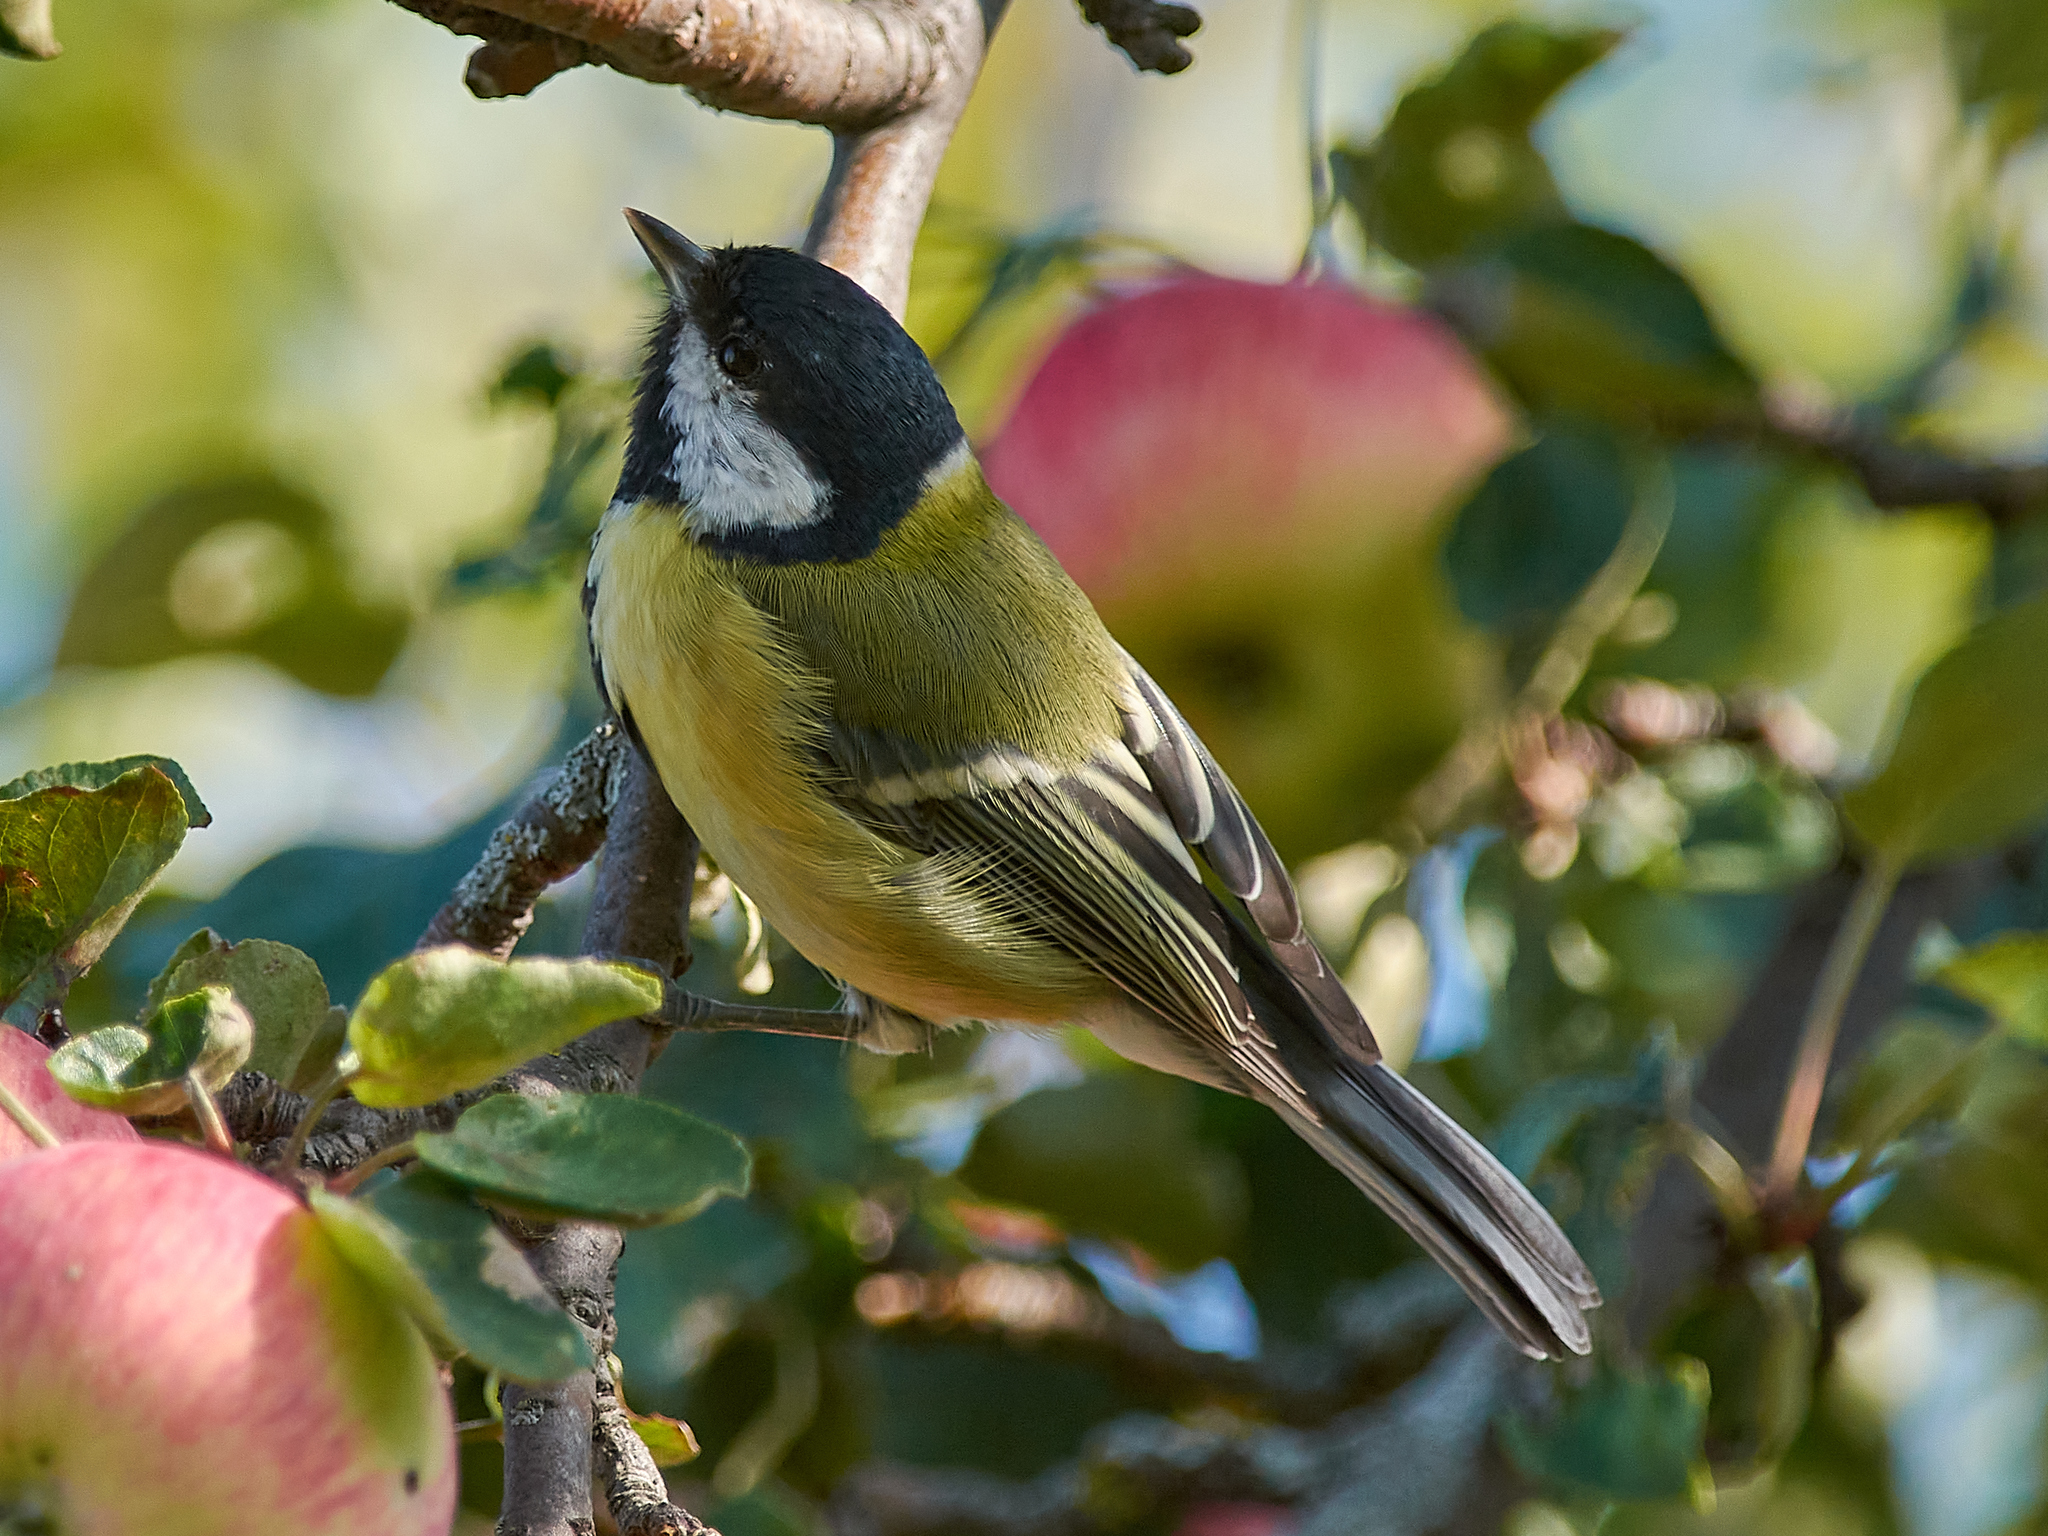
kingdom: Animalia
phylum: Chordata
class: Aves
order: Passeriformes
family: Paridae
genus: Parus
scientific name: Parus major
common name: Great tit
